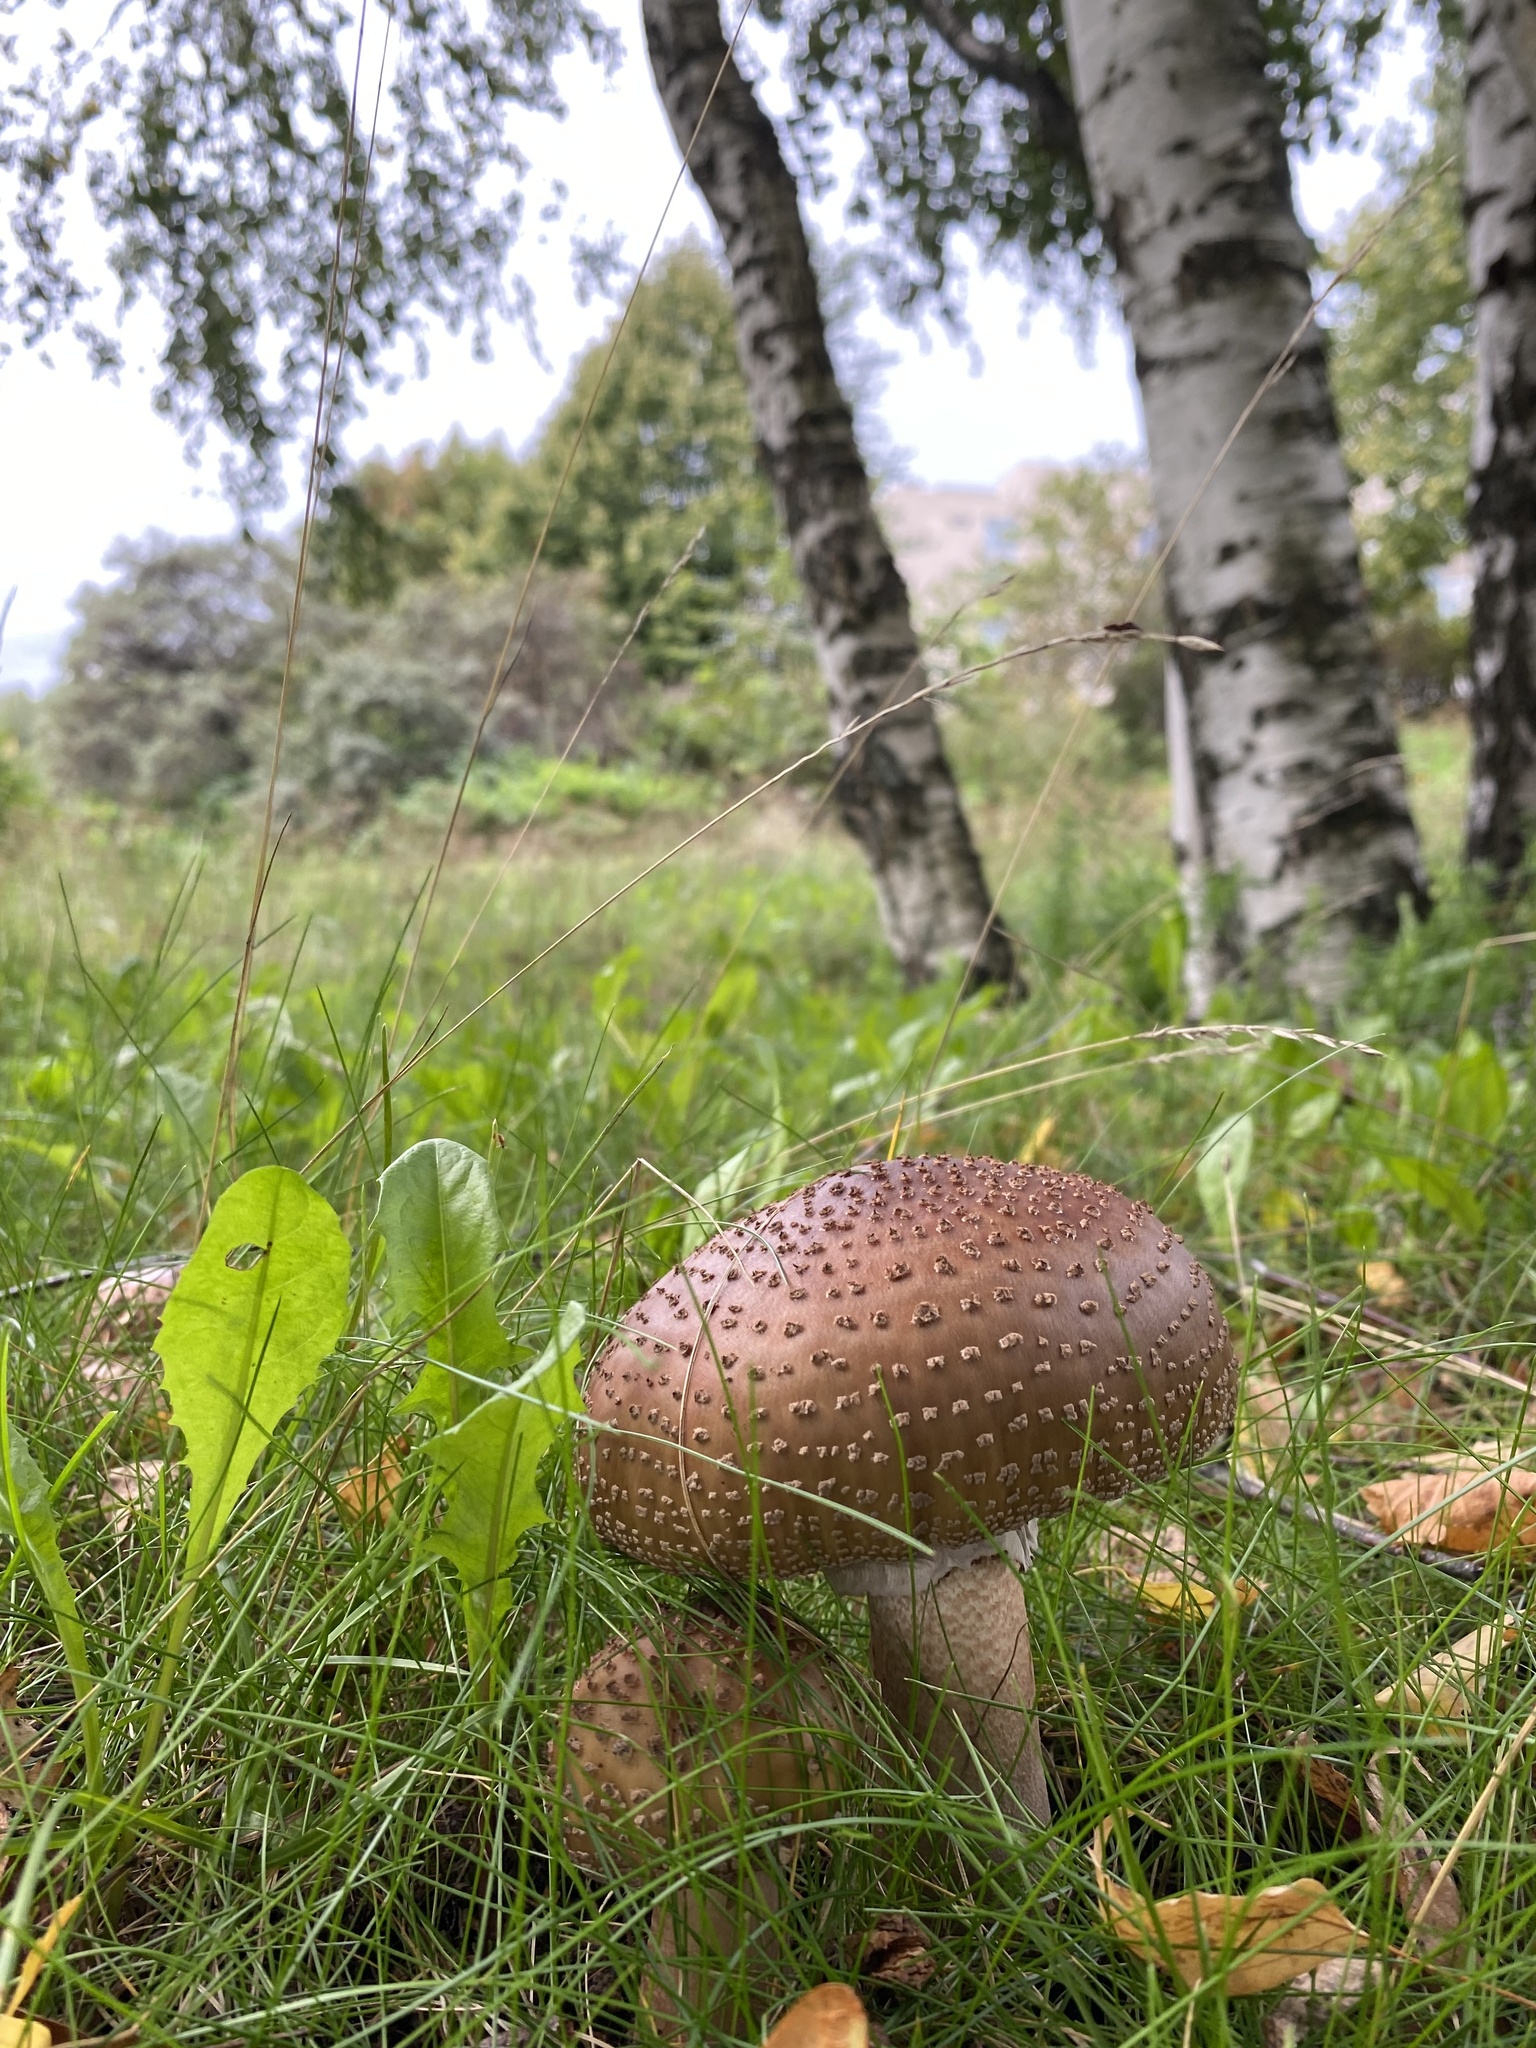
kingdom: Fungi
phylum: Basidiomycota
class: Agaricomycetes
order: Agaricales
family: Amanitaceae
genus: Amanita
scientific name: Amanita rubescens
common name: Blusher
